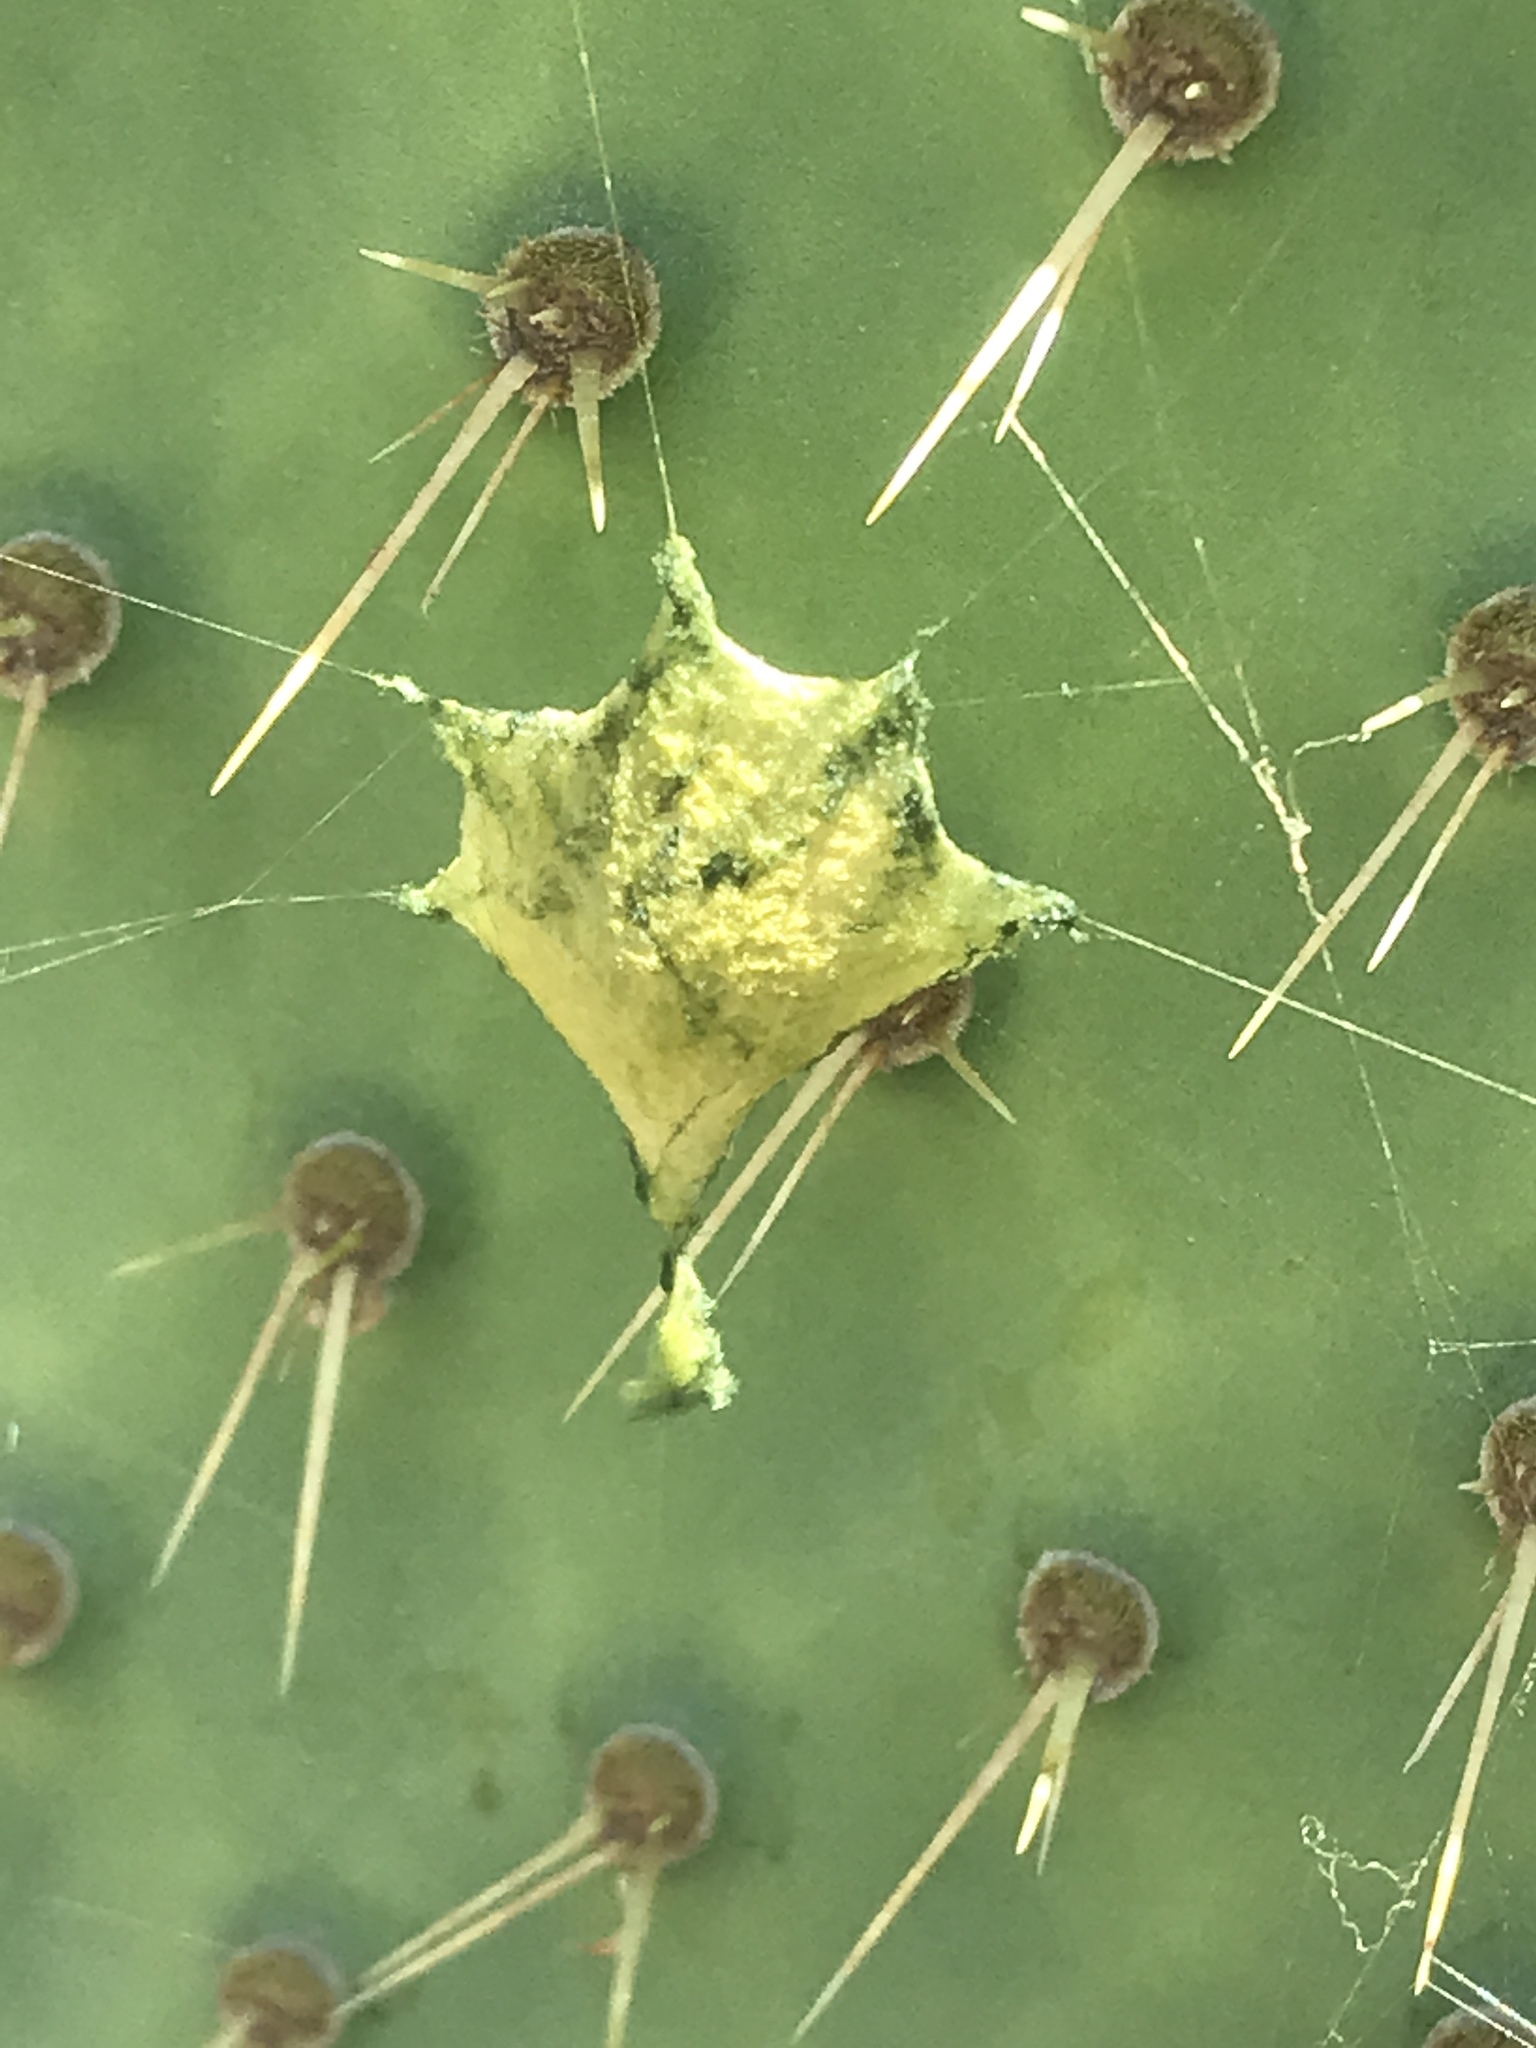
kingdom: Animalia
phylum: Arthropoda
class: Arachnida
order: Araneae
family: Araneidae
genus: Argiope
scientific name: Argiope argentata
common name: Orb weavers
